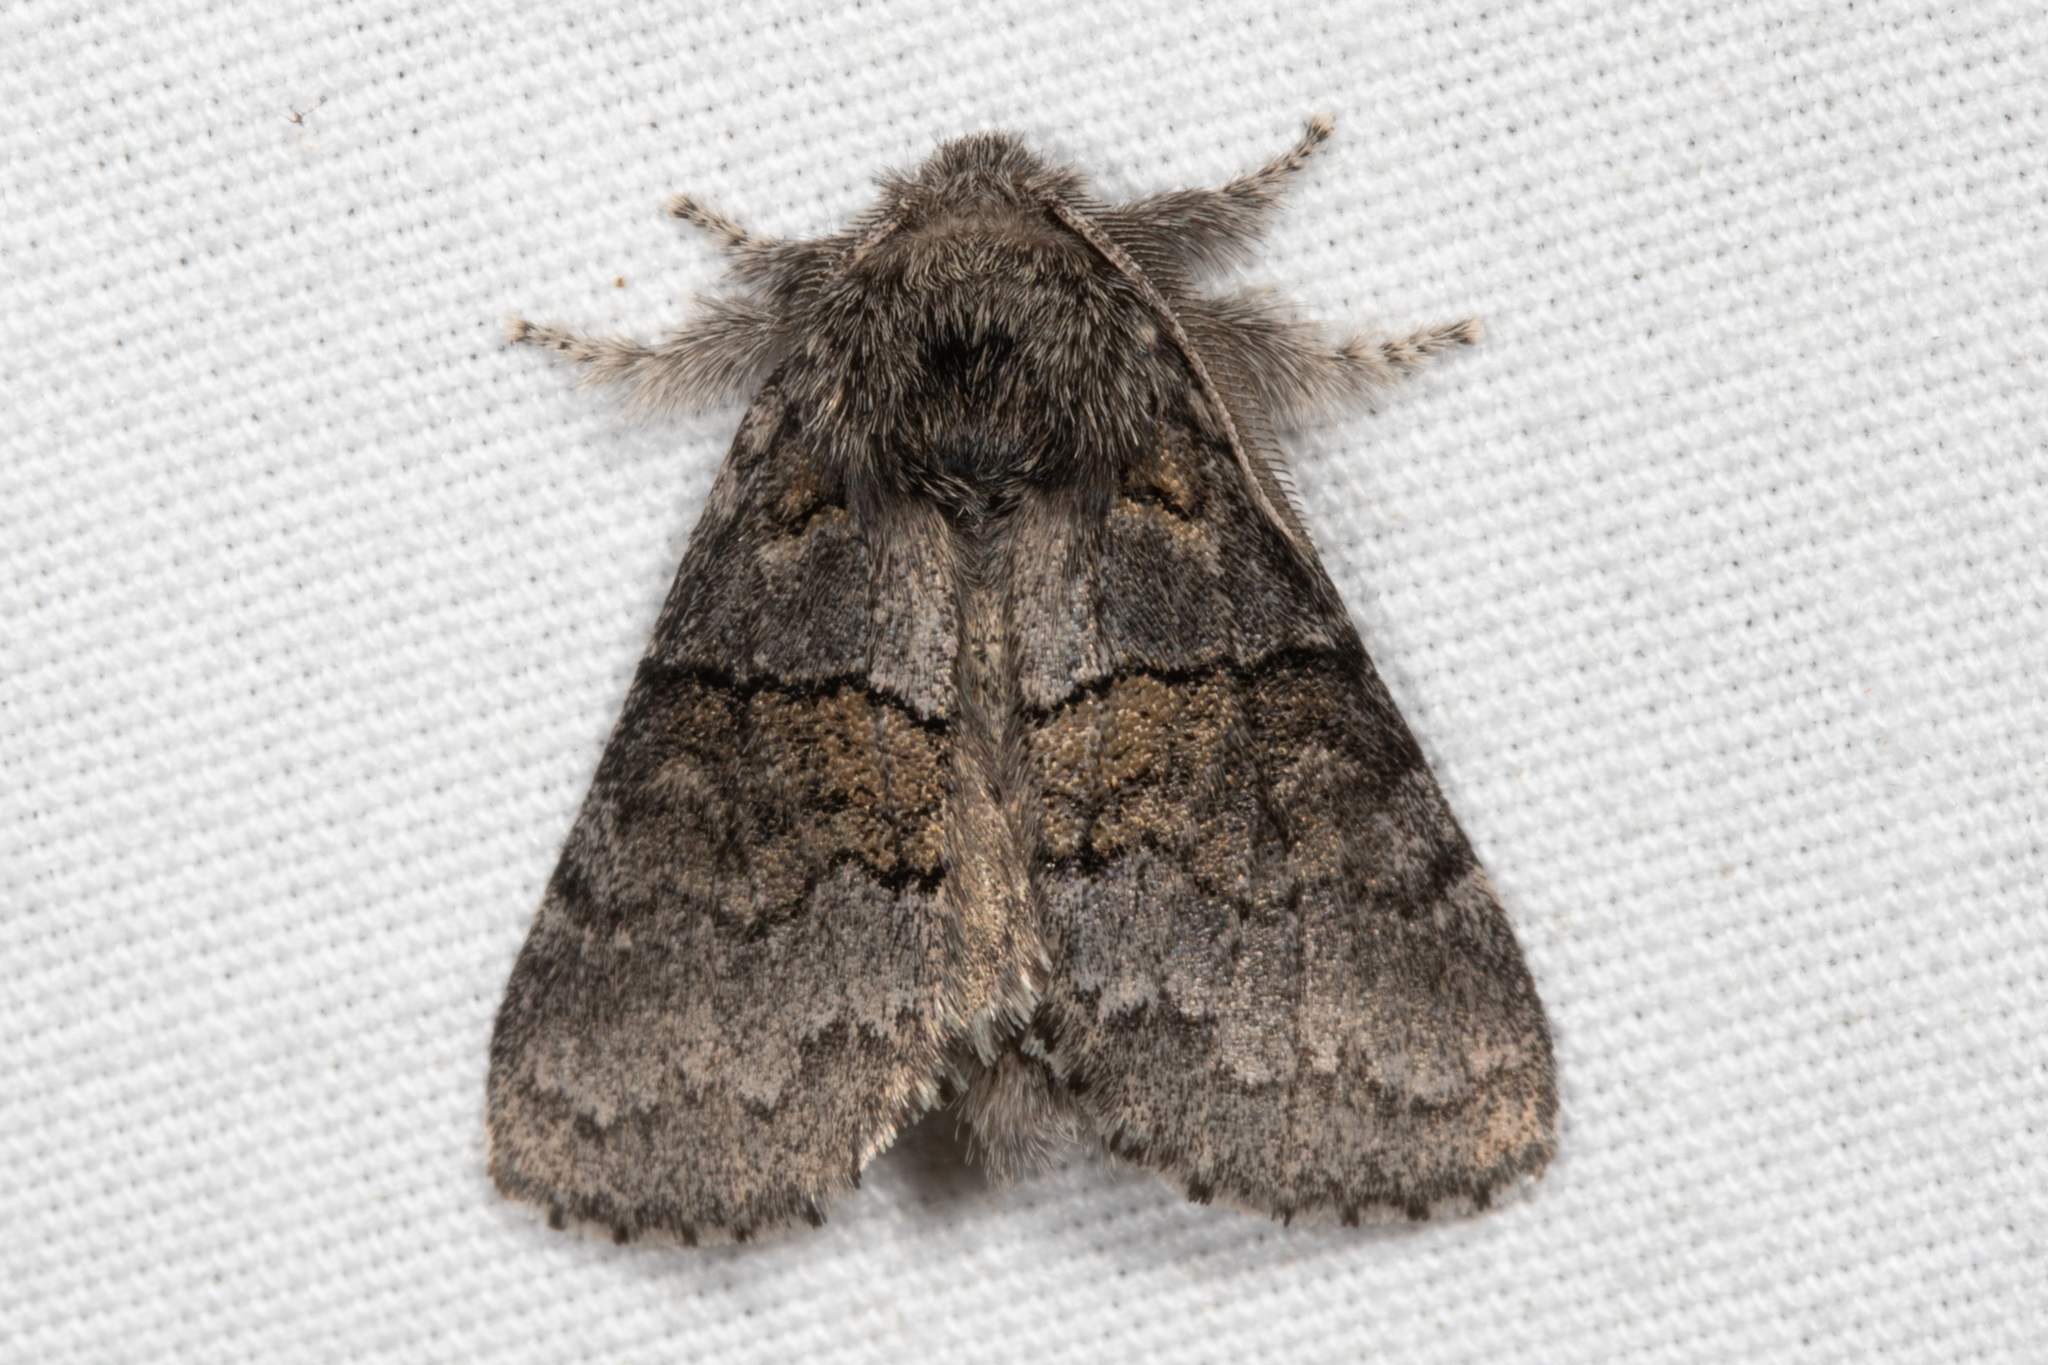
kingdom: Animalia
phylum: Arthropoda
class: Insecta
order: Lepidoptera
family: Notodontidae
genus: Gluphisia
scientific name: Gluphisia septentrionis
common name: Common gluphisia
